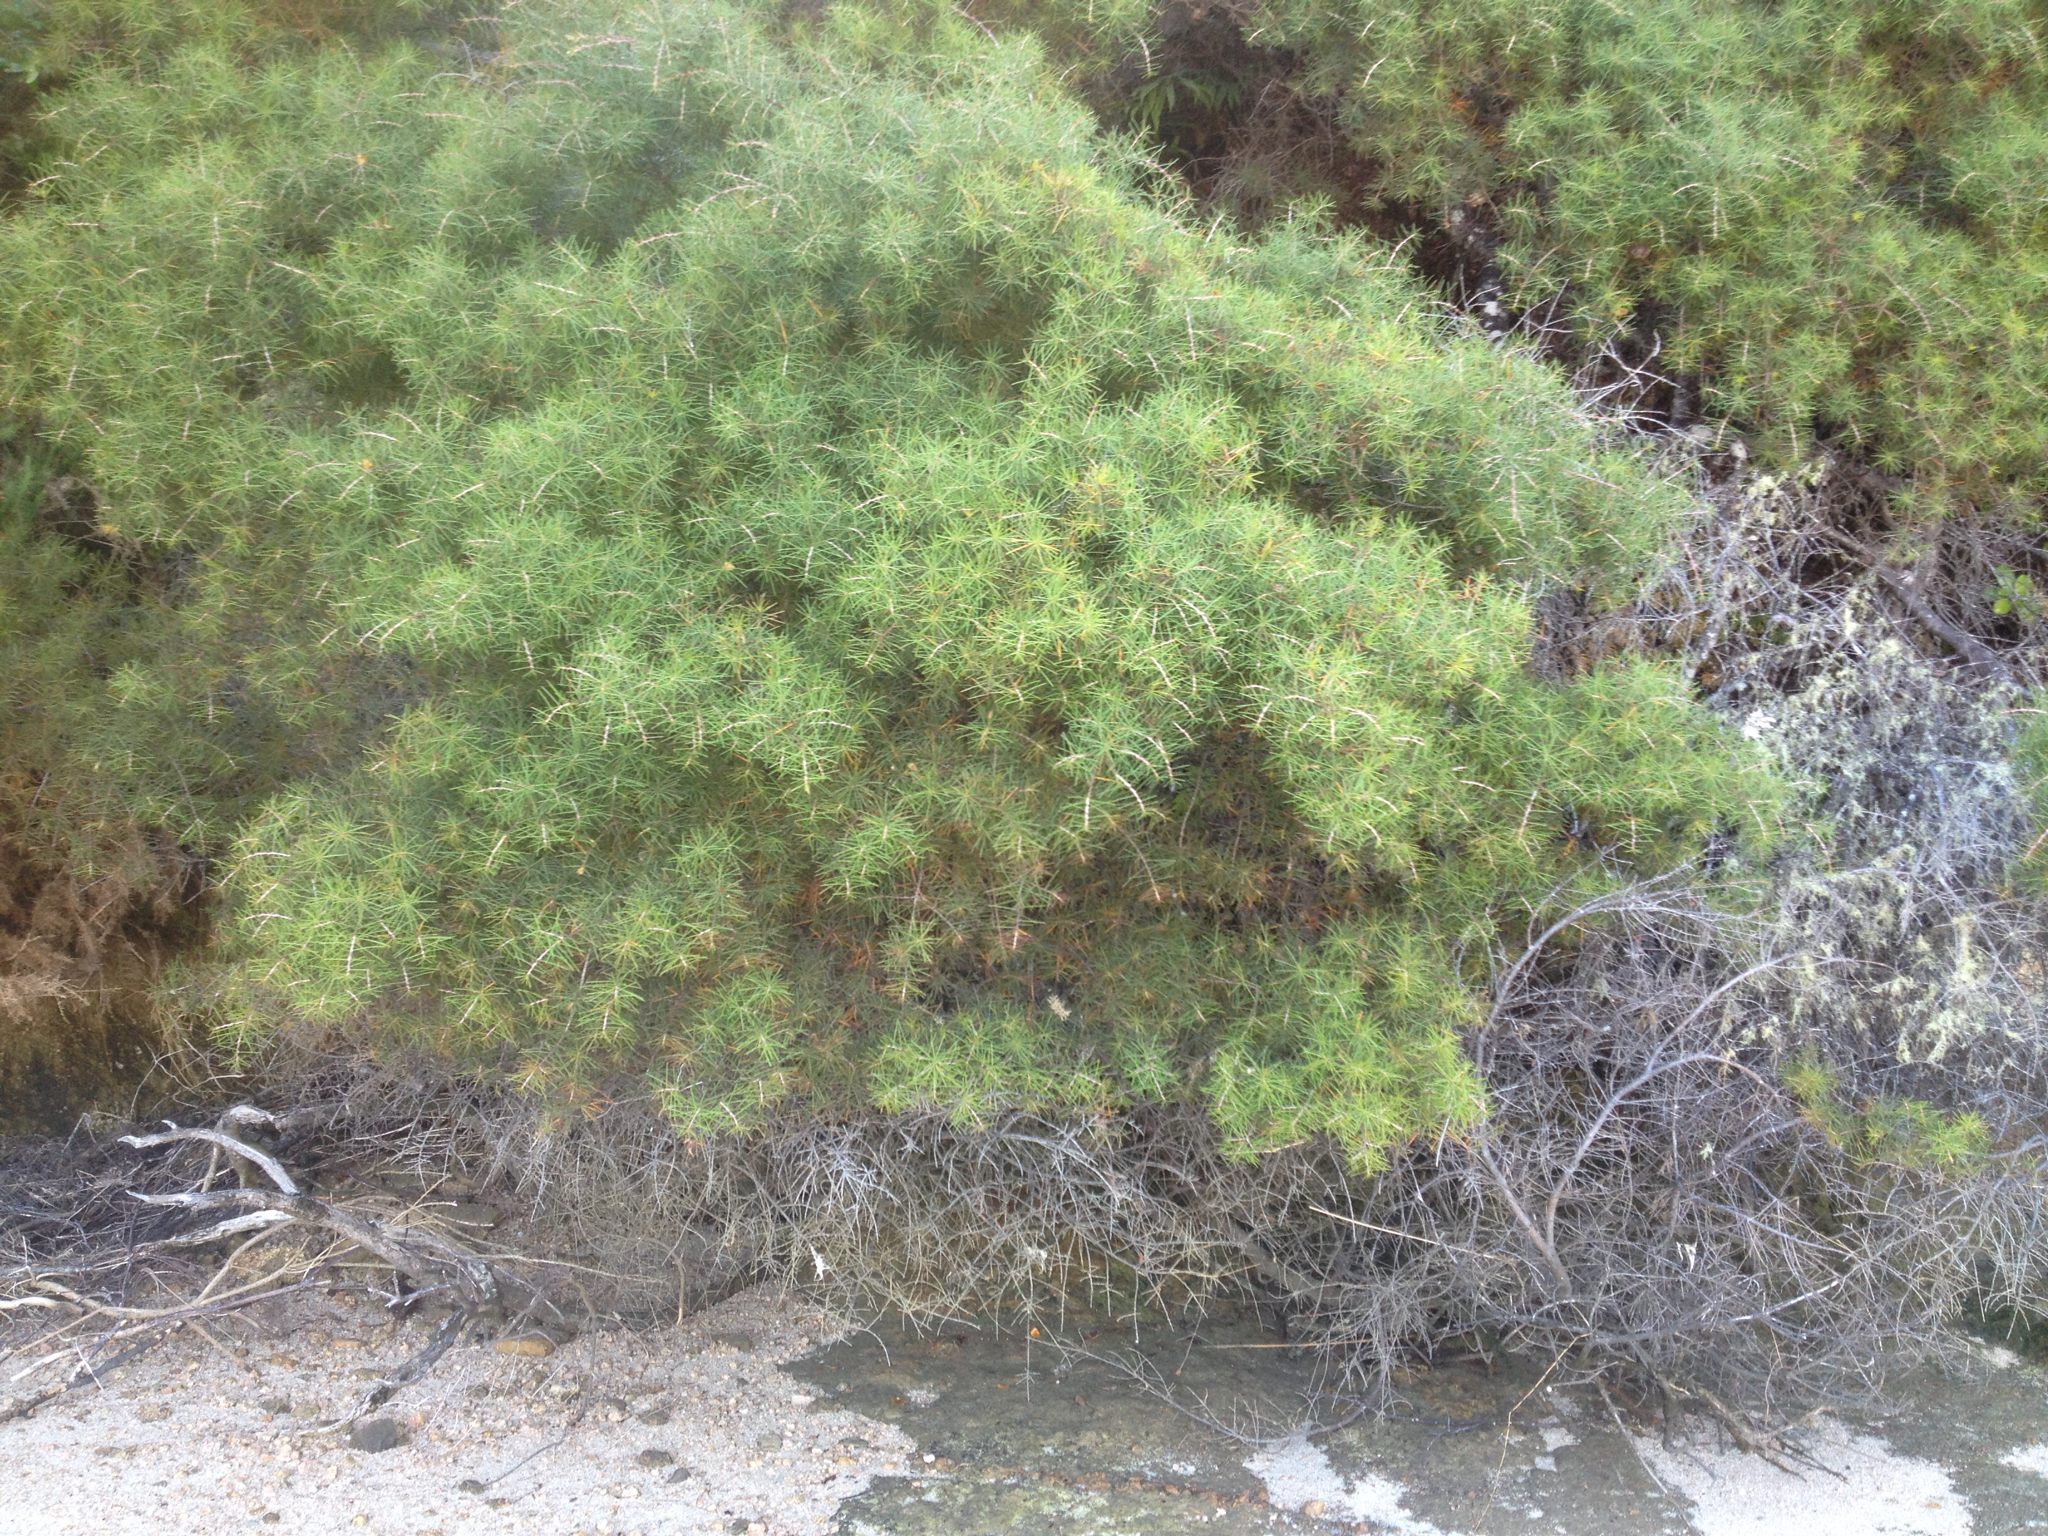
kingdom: Plantae
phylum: Tracheophyta
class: Magnoliopsida
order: Proteales
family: Proteaceae
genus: Hakea
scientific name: Hakea sericea
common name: Needle bush
